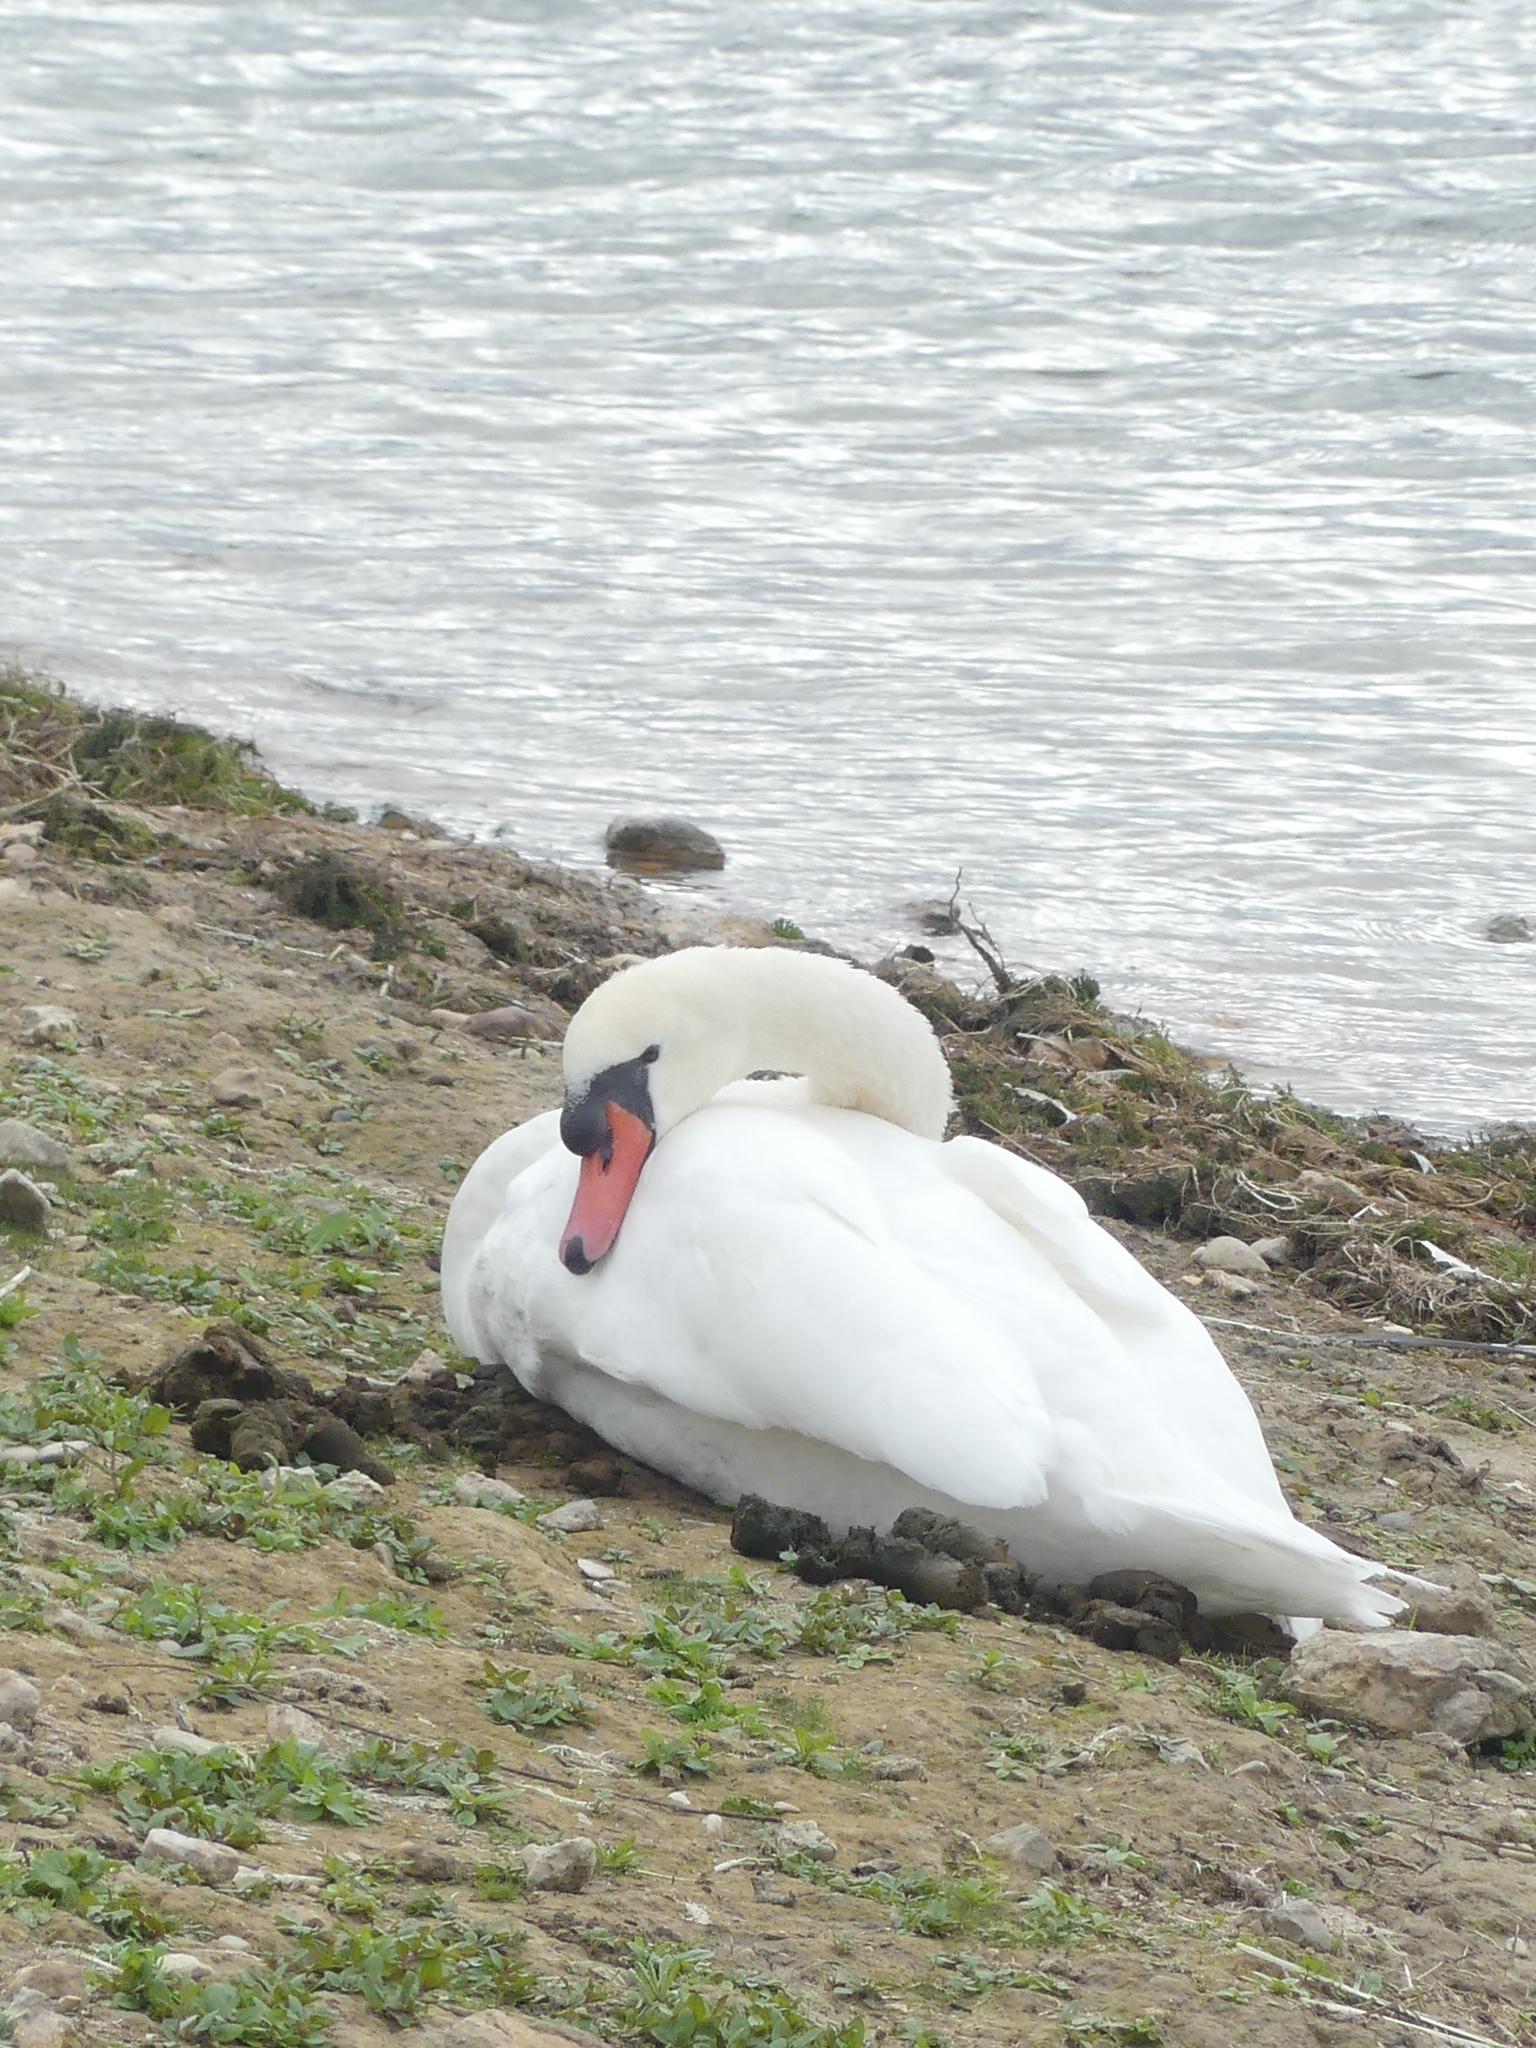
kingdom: Animalia
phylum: Chordata
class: Aves
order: Anseriformes
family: Anatidae
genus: Cygnus
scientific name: Cygnus olor
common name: Mute swan
